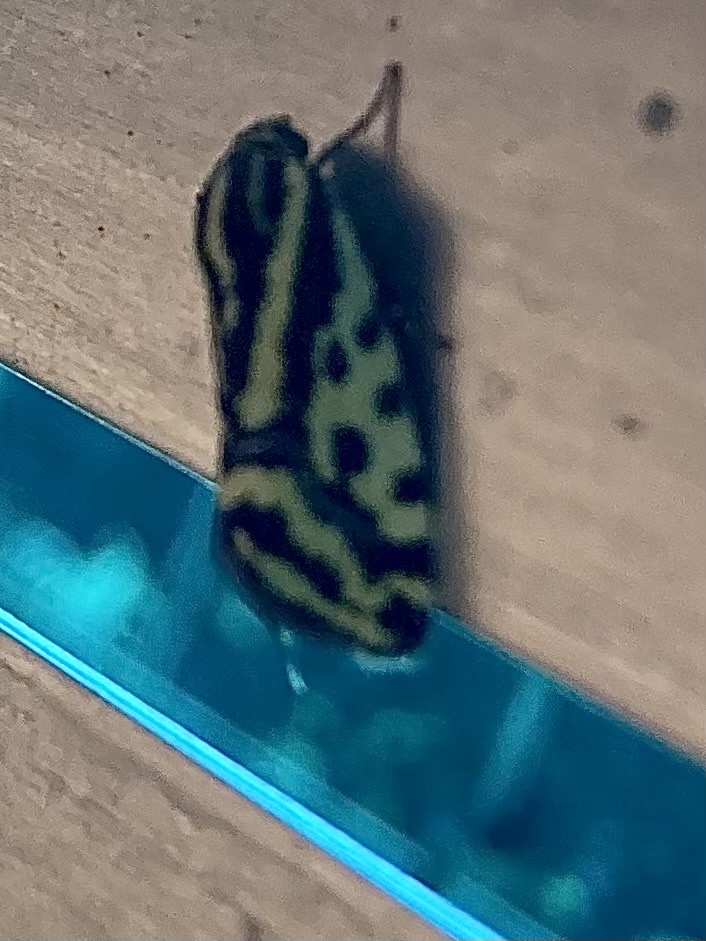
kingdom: Animalia
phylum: Arthropoda
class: Insecta
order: Lepidoptera
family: Noctuidae
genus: Acontia
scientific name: Acontia trabealis
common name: Spotted sulphur
